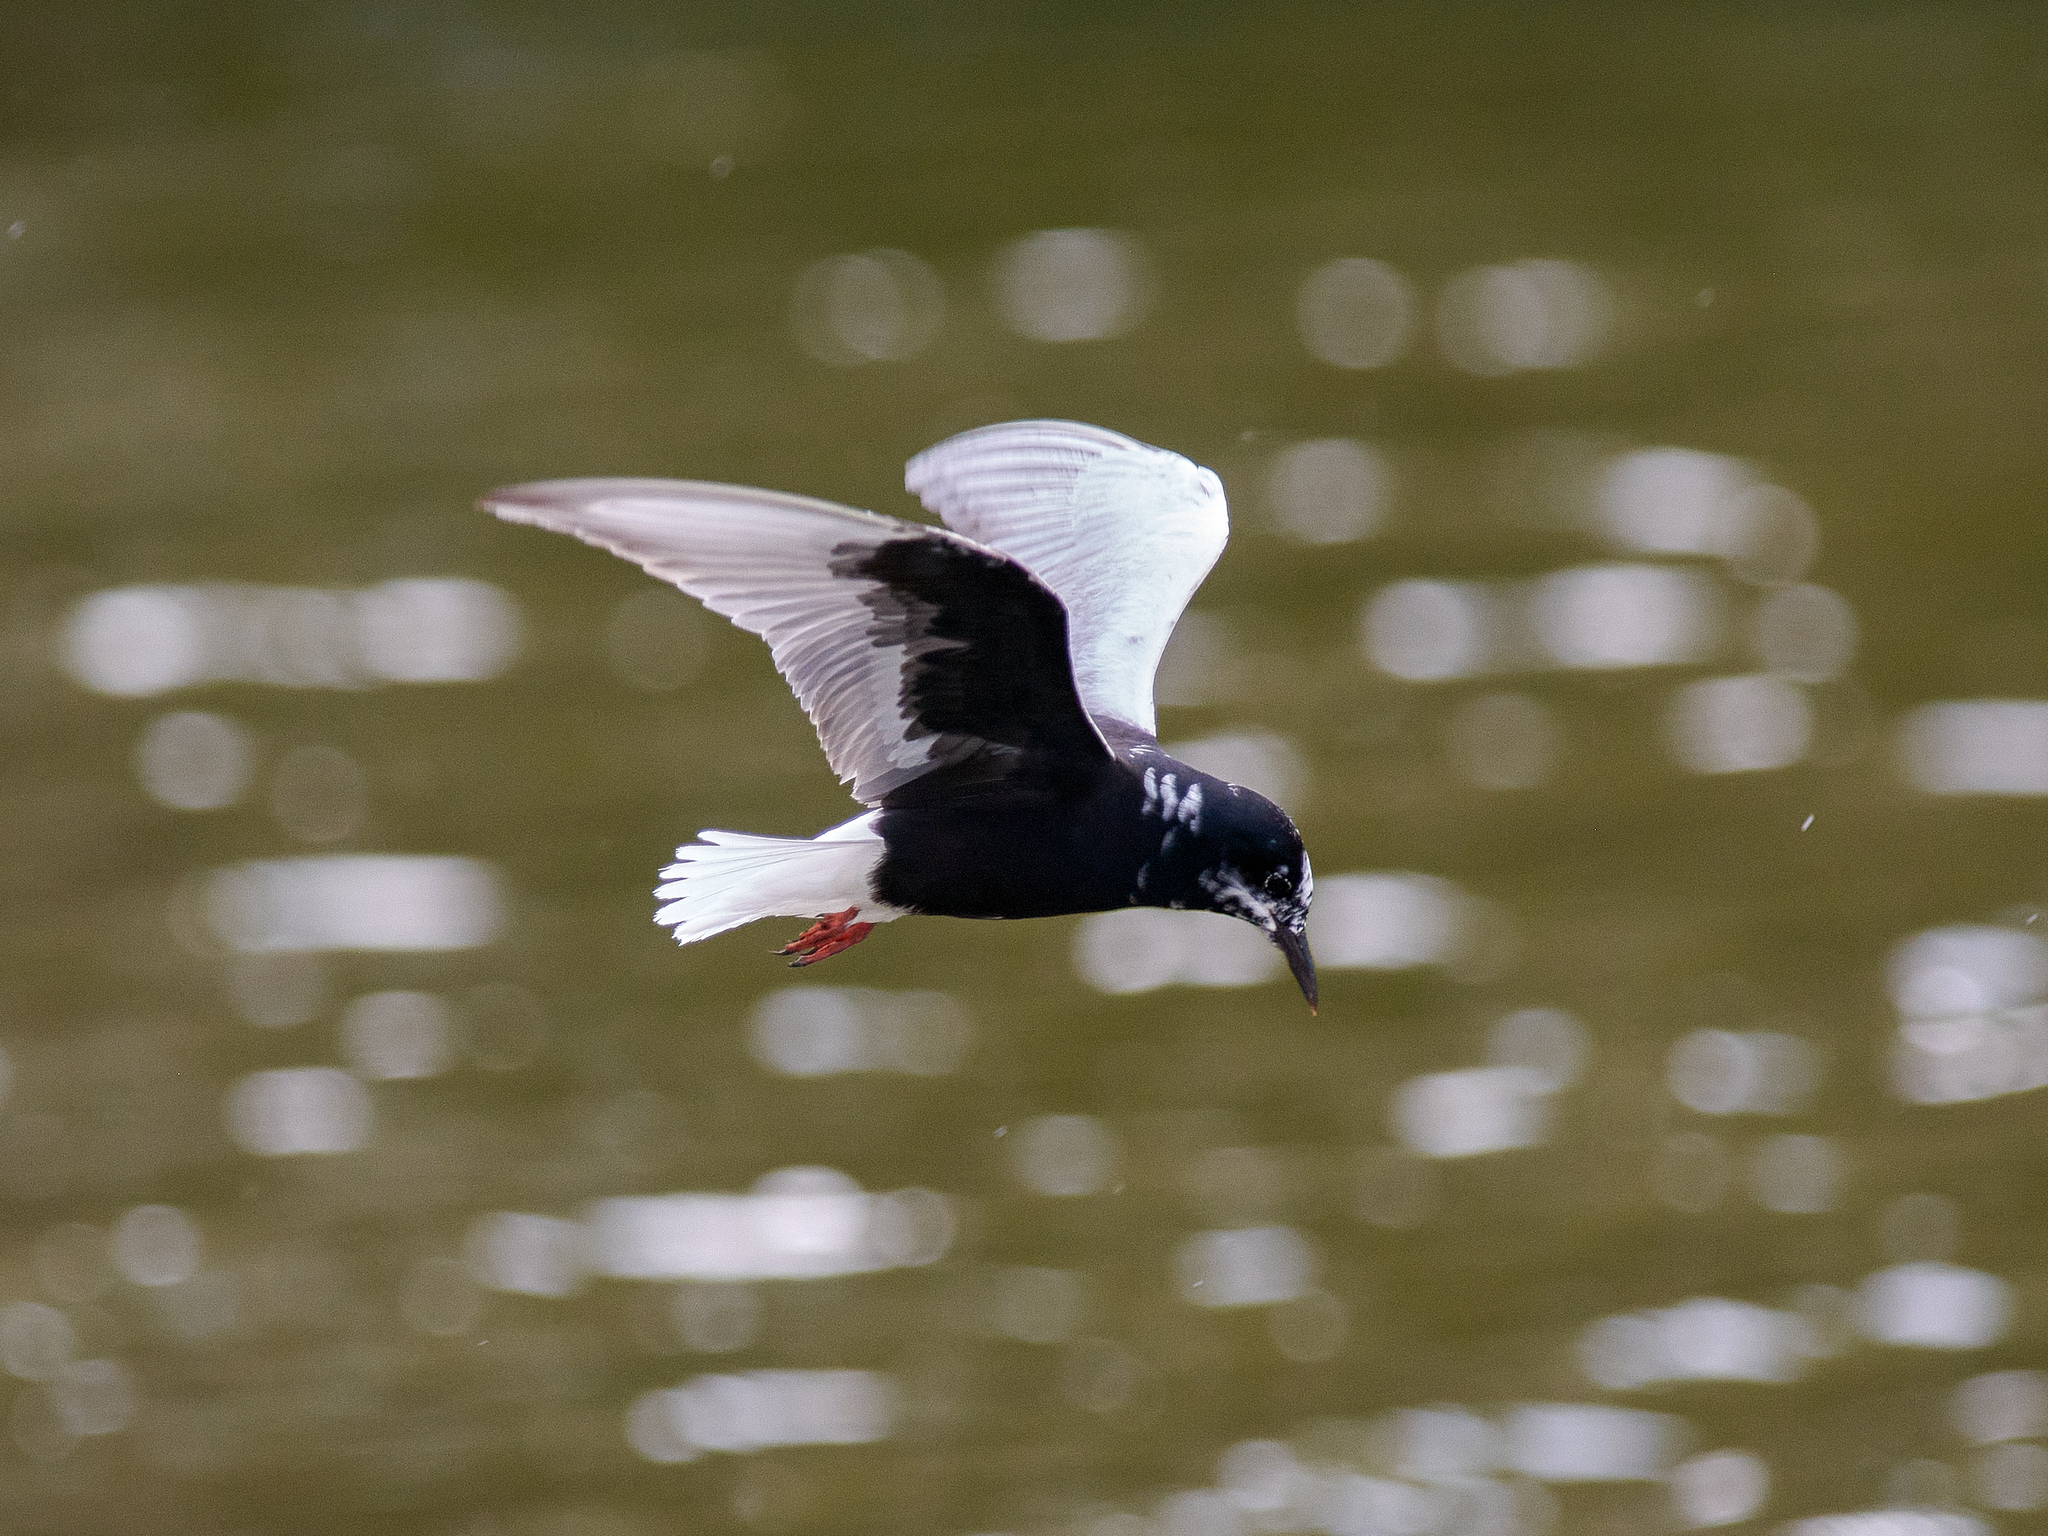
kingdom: Animalia
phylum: Chordata
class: Aves
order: Charadriiformes
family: Laridae
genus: Chlidonias
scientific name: Chlidonias leucopterus
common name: White-winged tern
